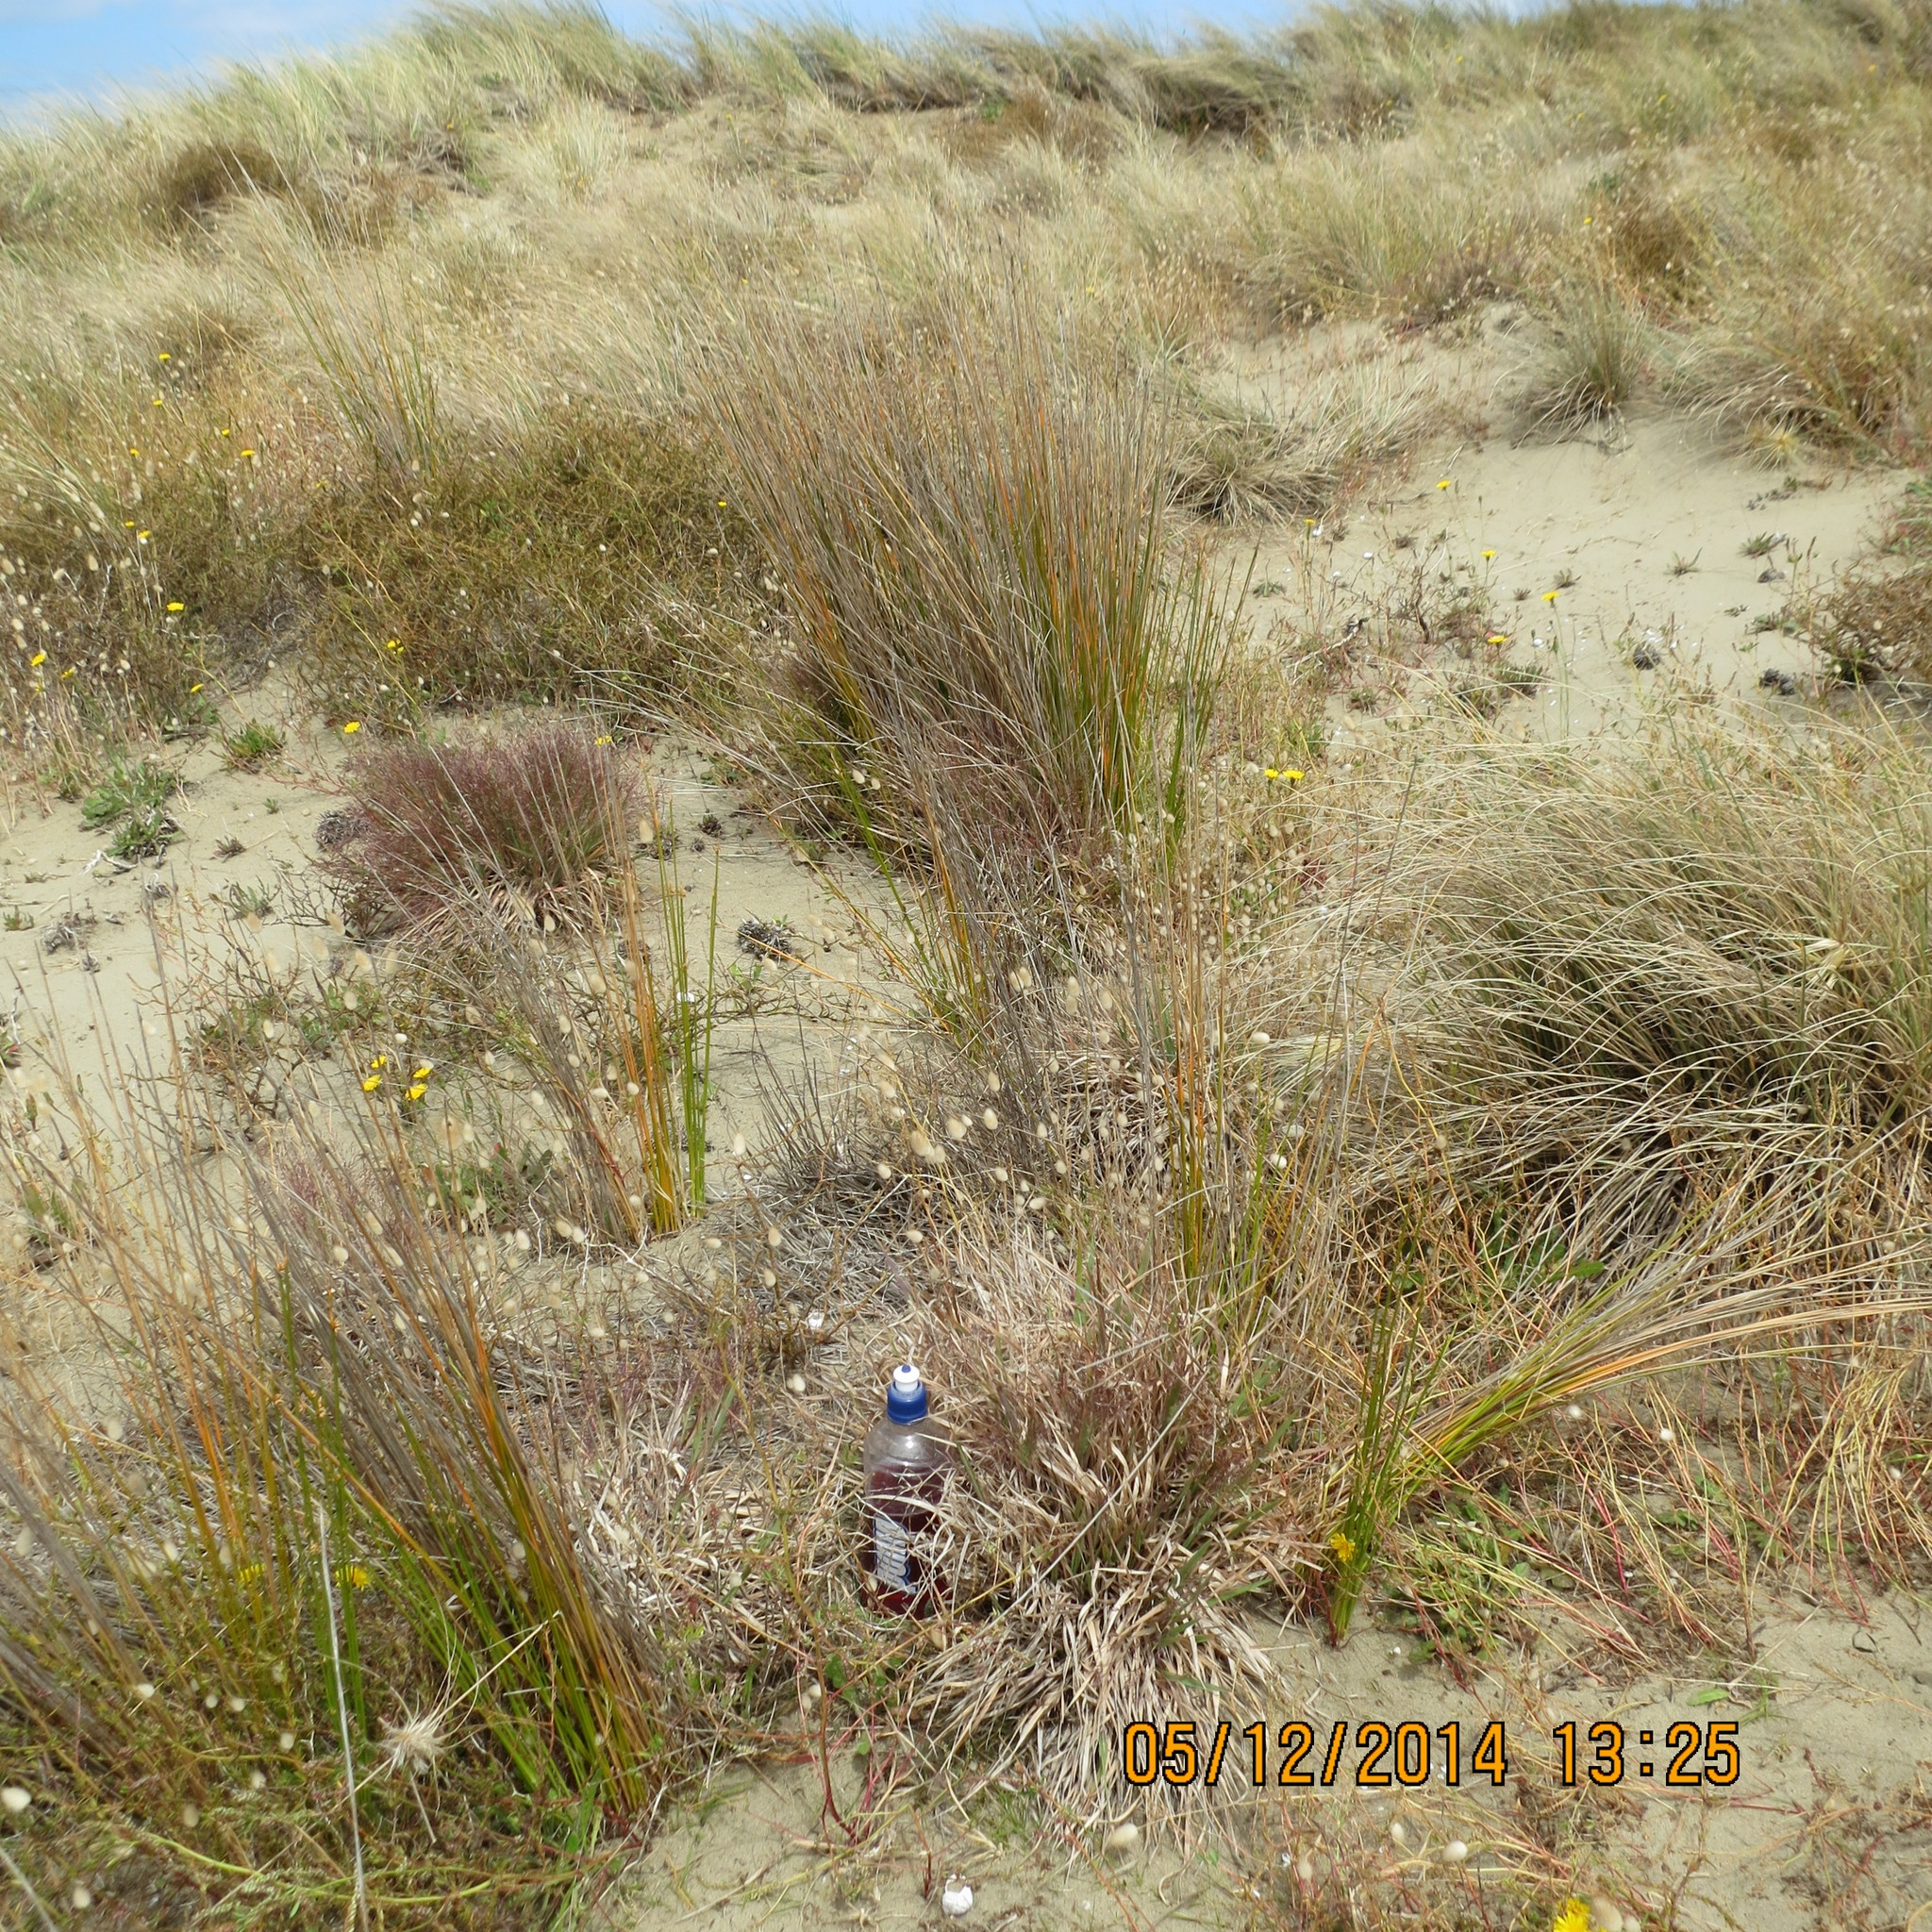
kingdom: Animalia
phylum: Arthropoda
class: Arachnida
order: Araneae
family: Porrhothelidae
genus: Porrhothele
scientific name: Porrhothele antipodiana
